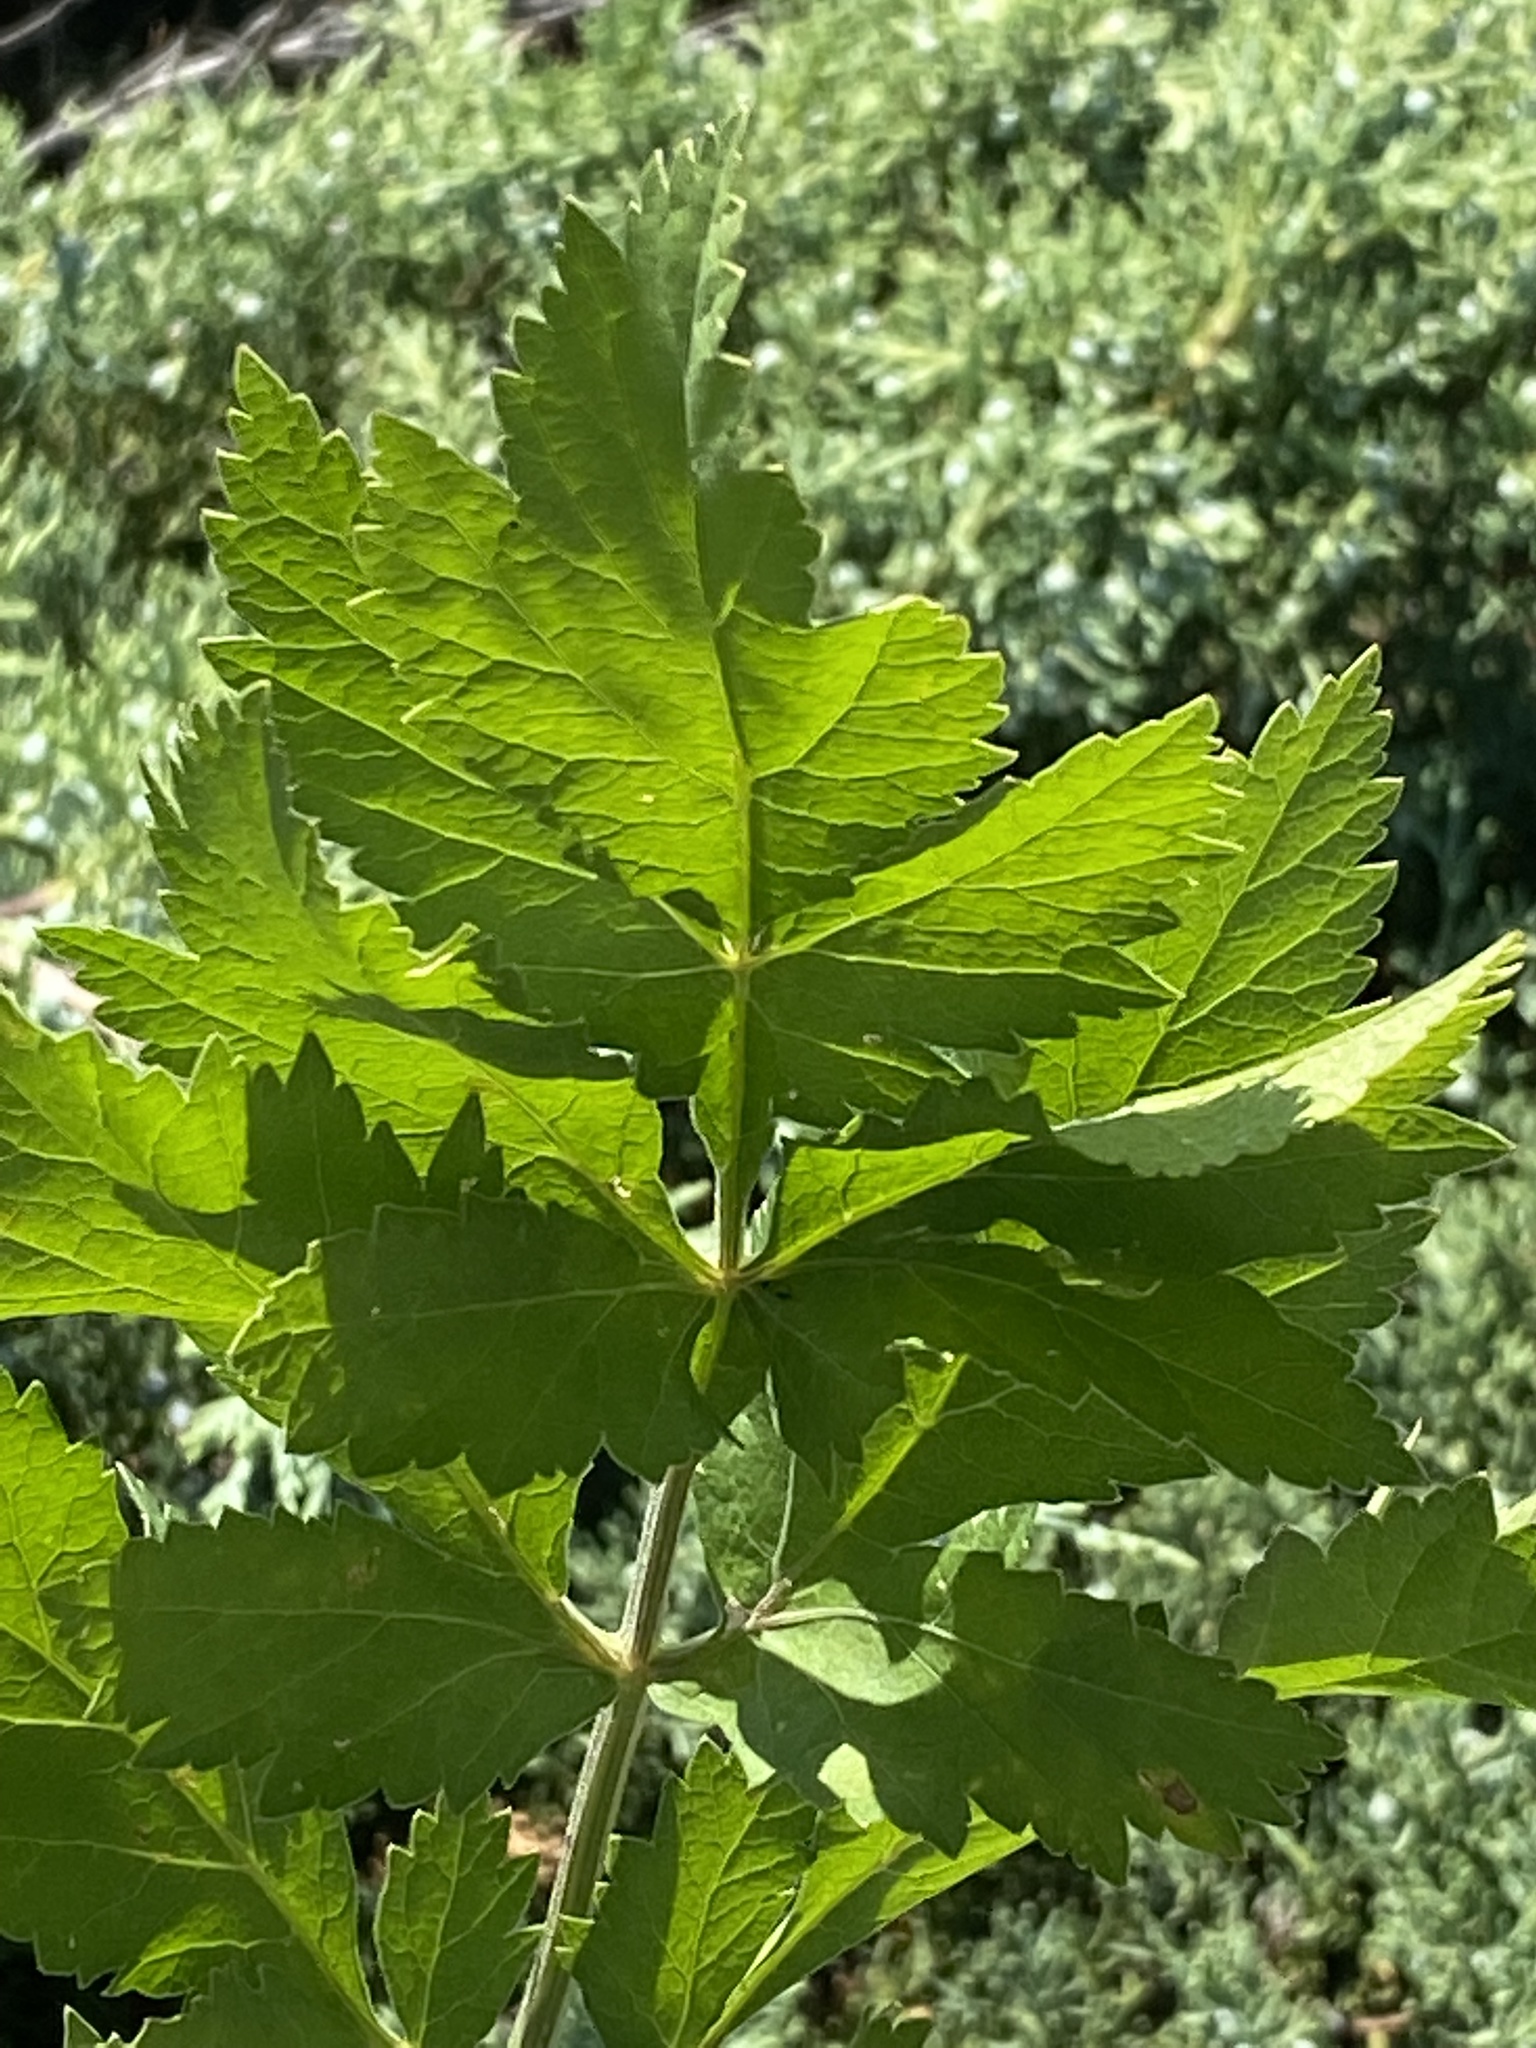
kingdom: Plantae
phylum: Tracheophyta
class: Magnoliopsida
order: Apiales
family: Apiaceae
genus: Pastinaca
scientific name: Pastinaca sativa
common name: Wild parsnip
